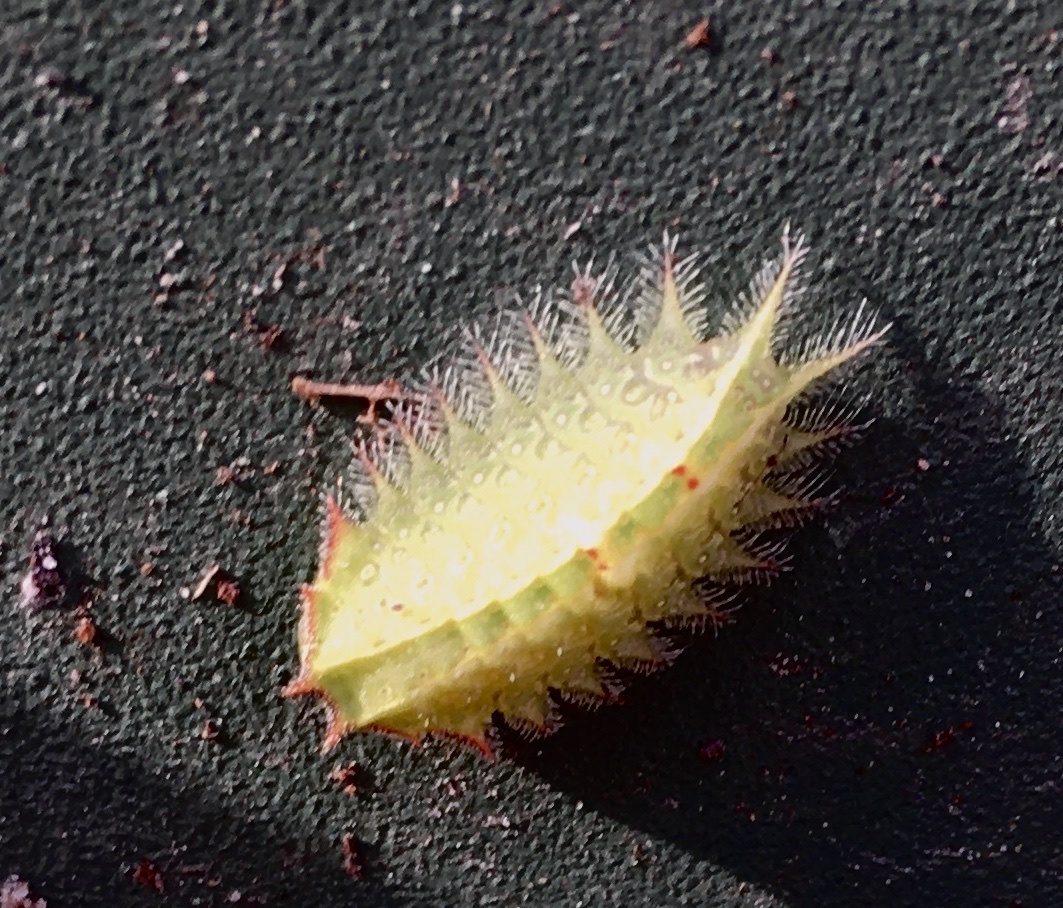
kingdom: Animalia
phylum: Arthropoda
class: Insecta
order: Lepidoptera
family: Limacodidae
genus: Isa
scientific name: Isa textula
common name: Crowned slug moth
